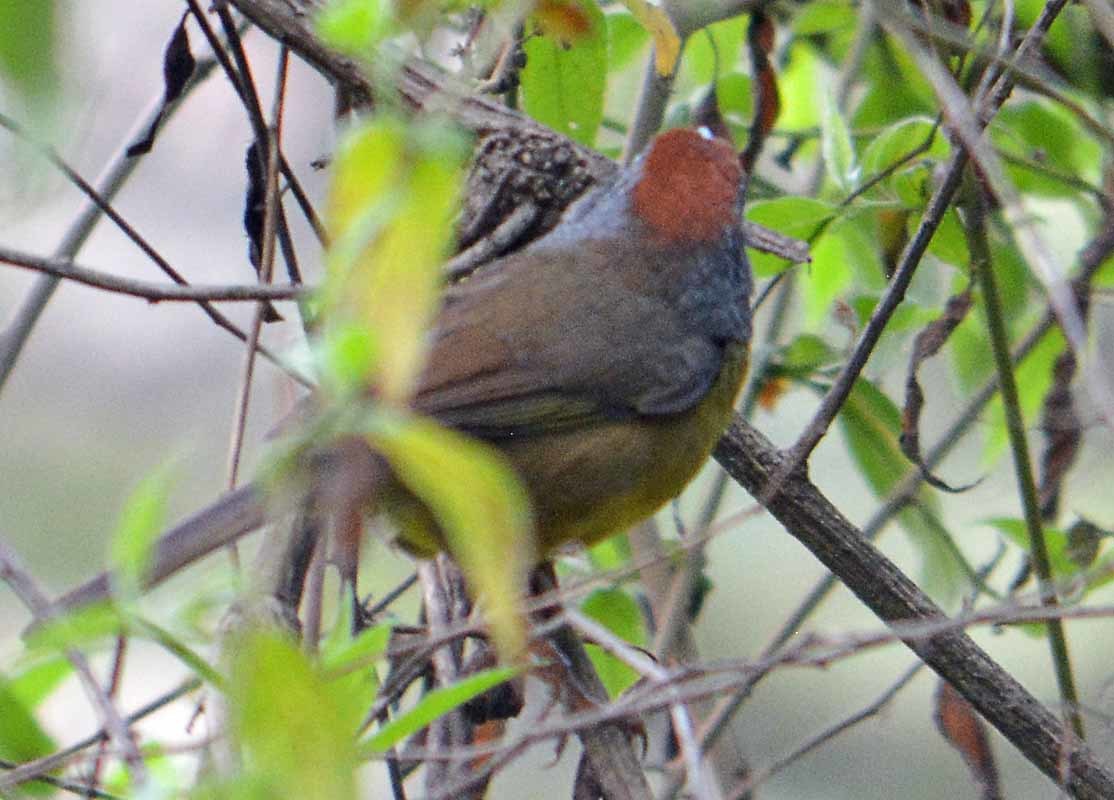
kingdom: Animalia
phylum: Chordata
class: Aves
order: Passeriformes
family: Passerellidae
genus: Atlapetes
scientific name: Atlapetes pileatus
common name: Rufous-capped brush-finch
